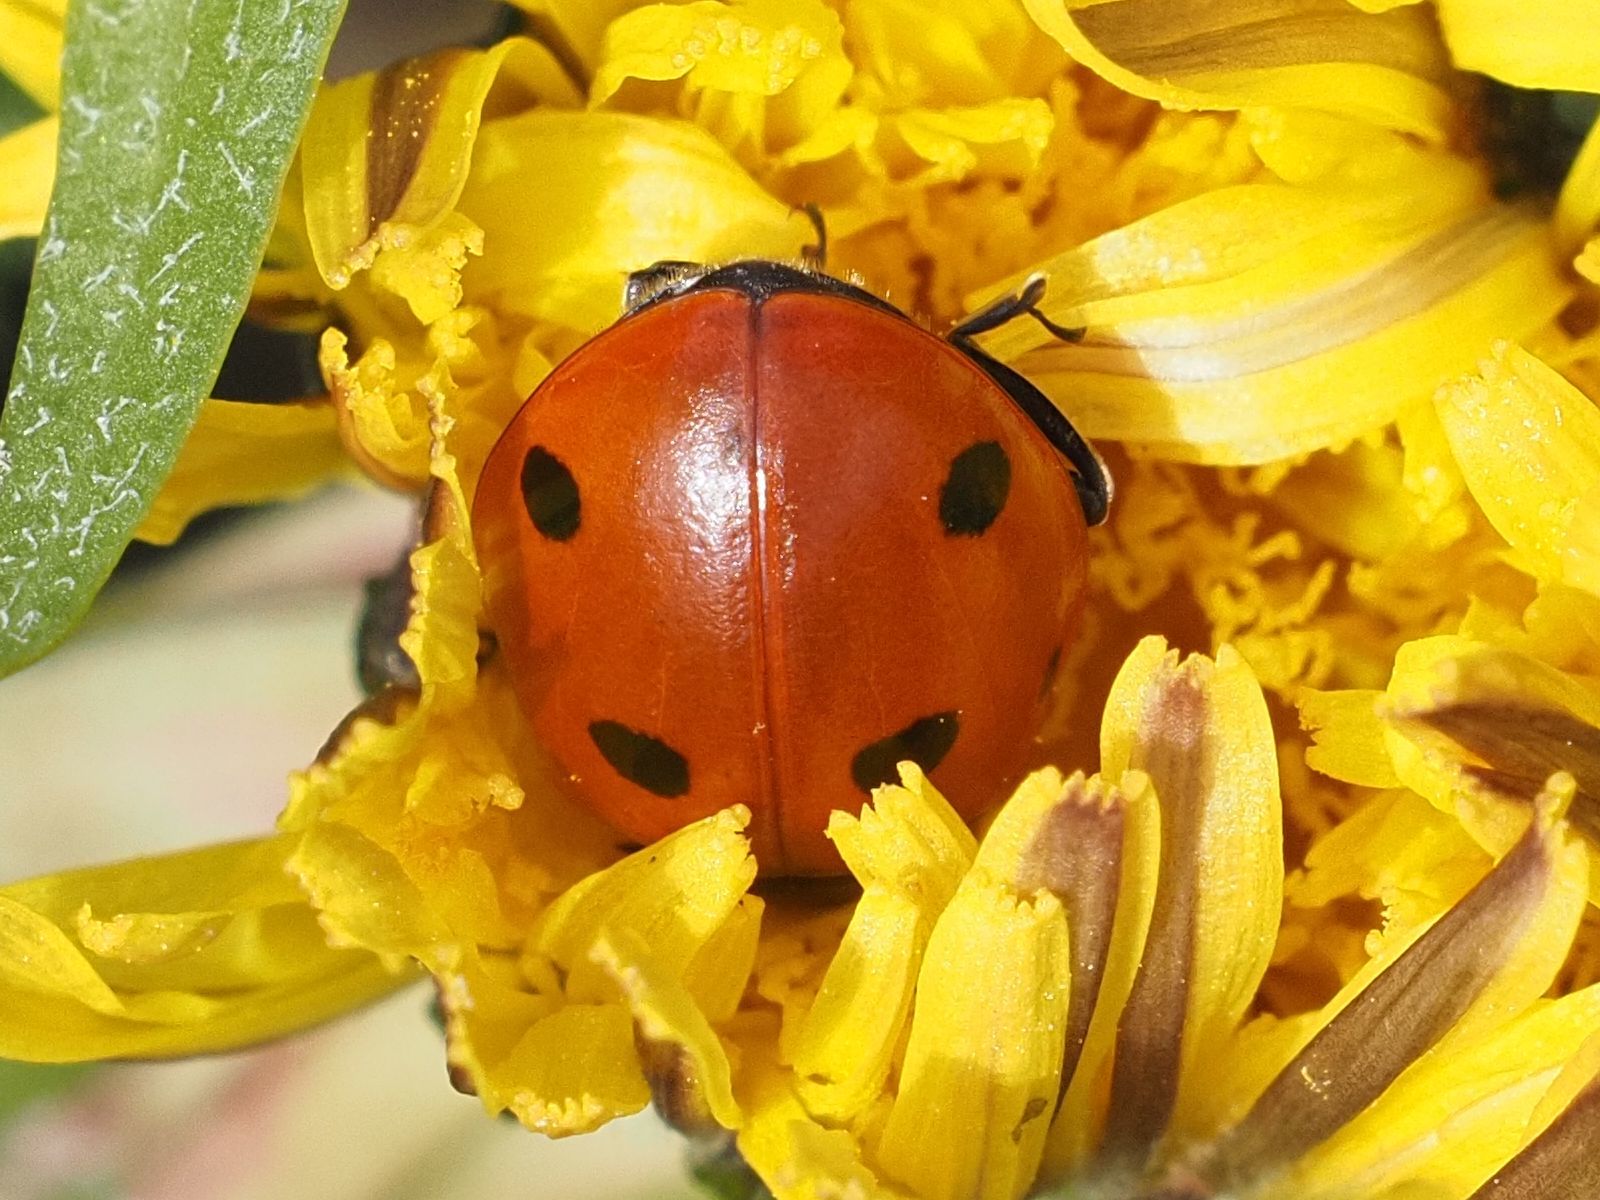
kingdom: Animalia
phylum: Arthropoda
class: Insecta
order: Coleoptera
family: Coccinellidae
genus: Coccinella
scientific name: Coccinella septempunctata
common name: Sevenspotted lady beetle
